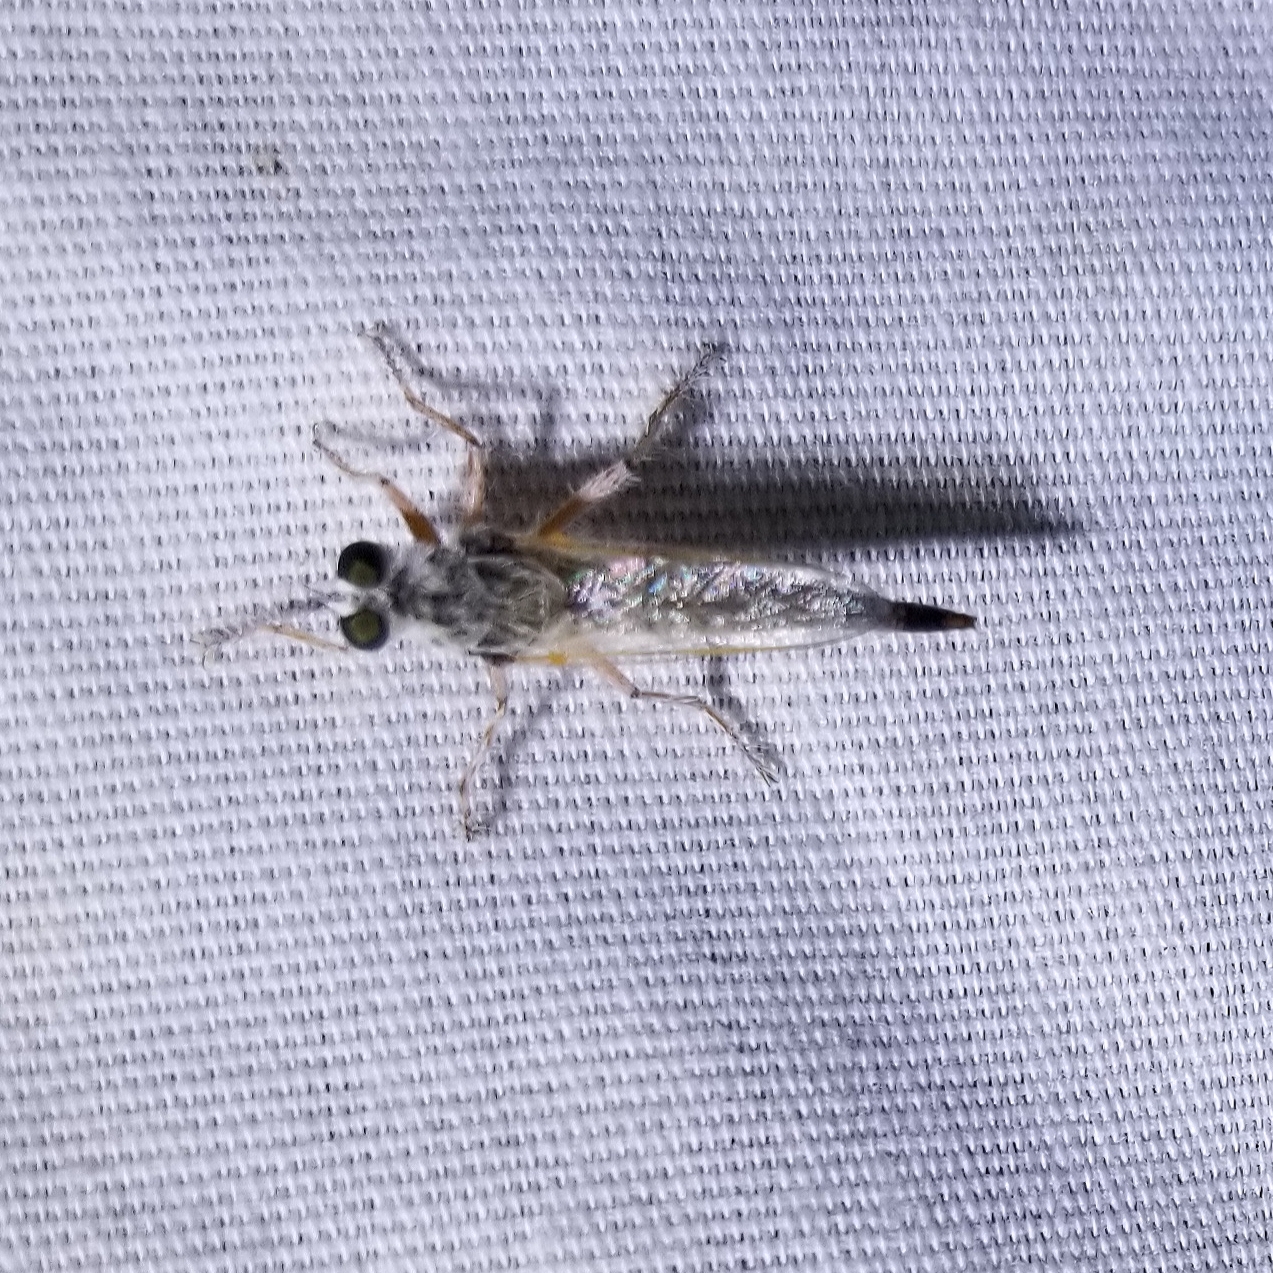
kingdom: Animalia
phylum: Arthropoda
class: Insecta
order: Diptera
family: Asilidae
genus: Proctacanthella
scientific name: Proctacanthella tolandi
